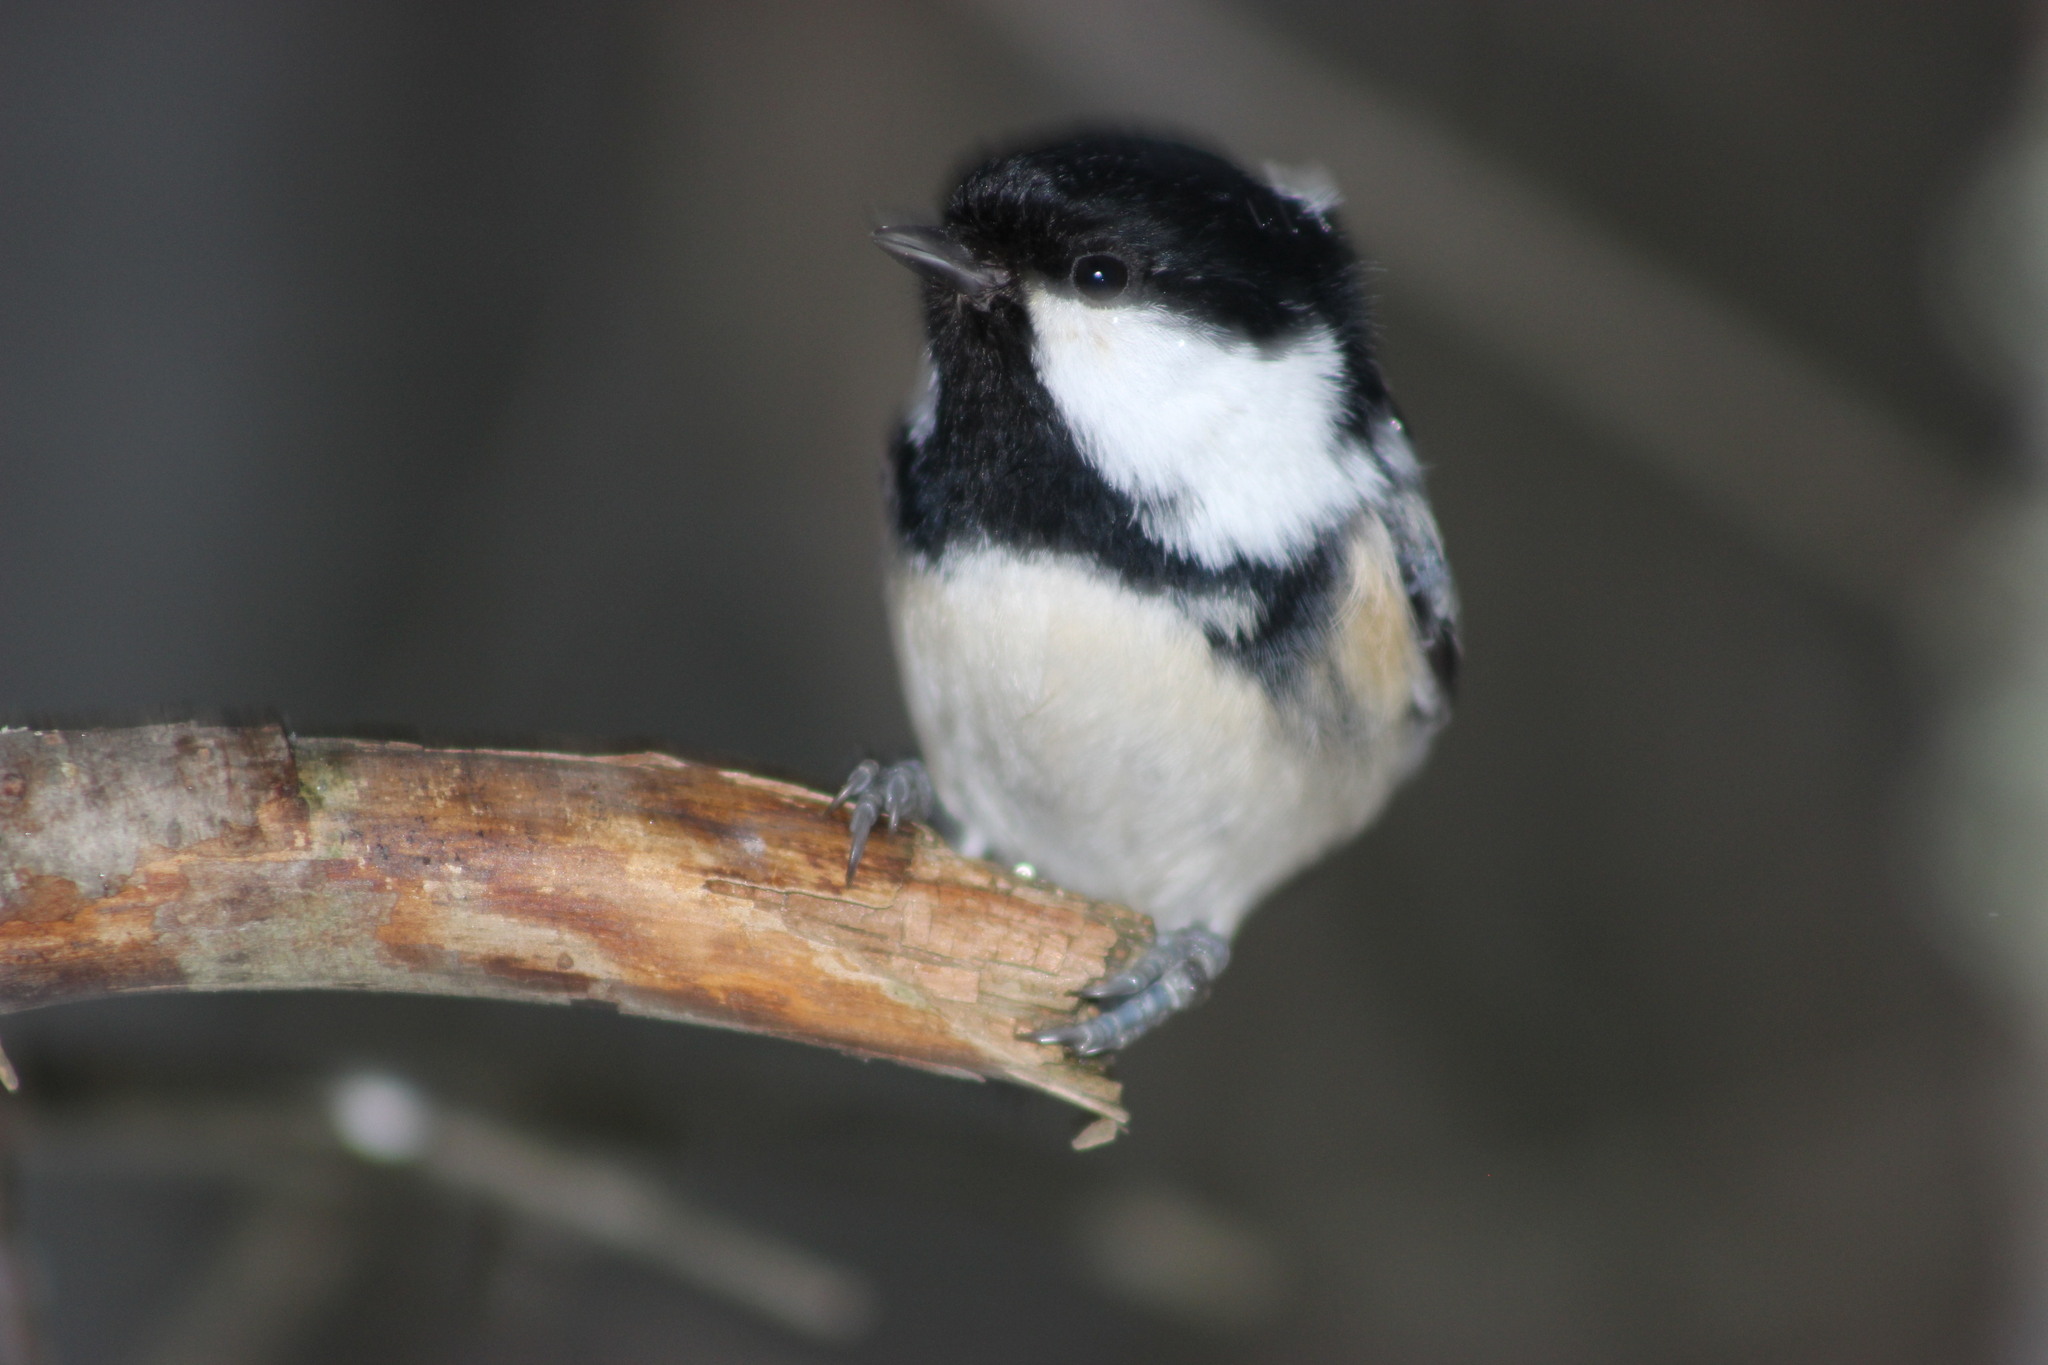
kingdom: Animalia
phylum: Chordata
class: Aves
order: Passeriformes
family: Paridae
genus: Periparus
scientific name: Periparus ater
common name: Coal tit
